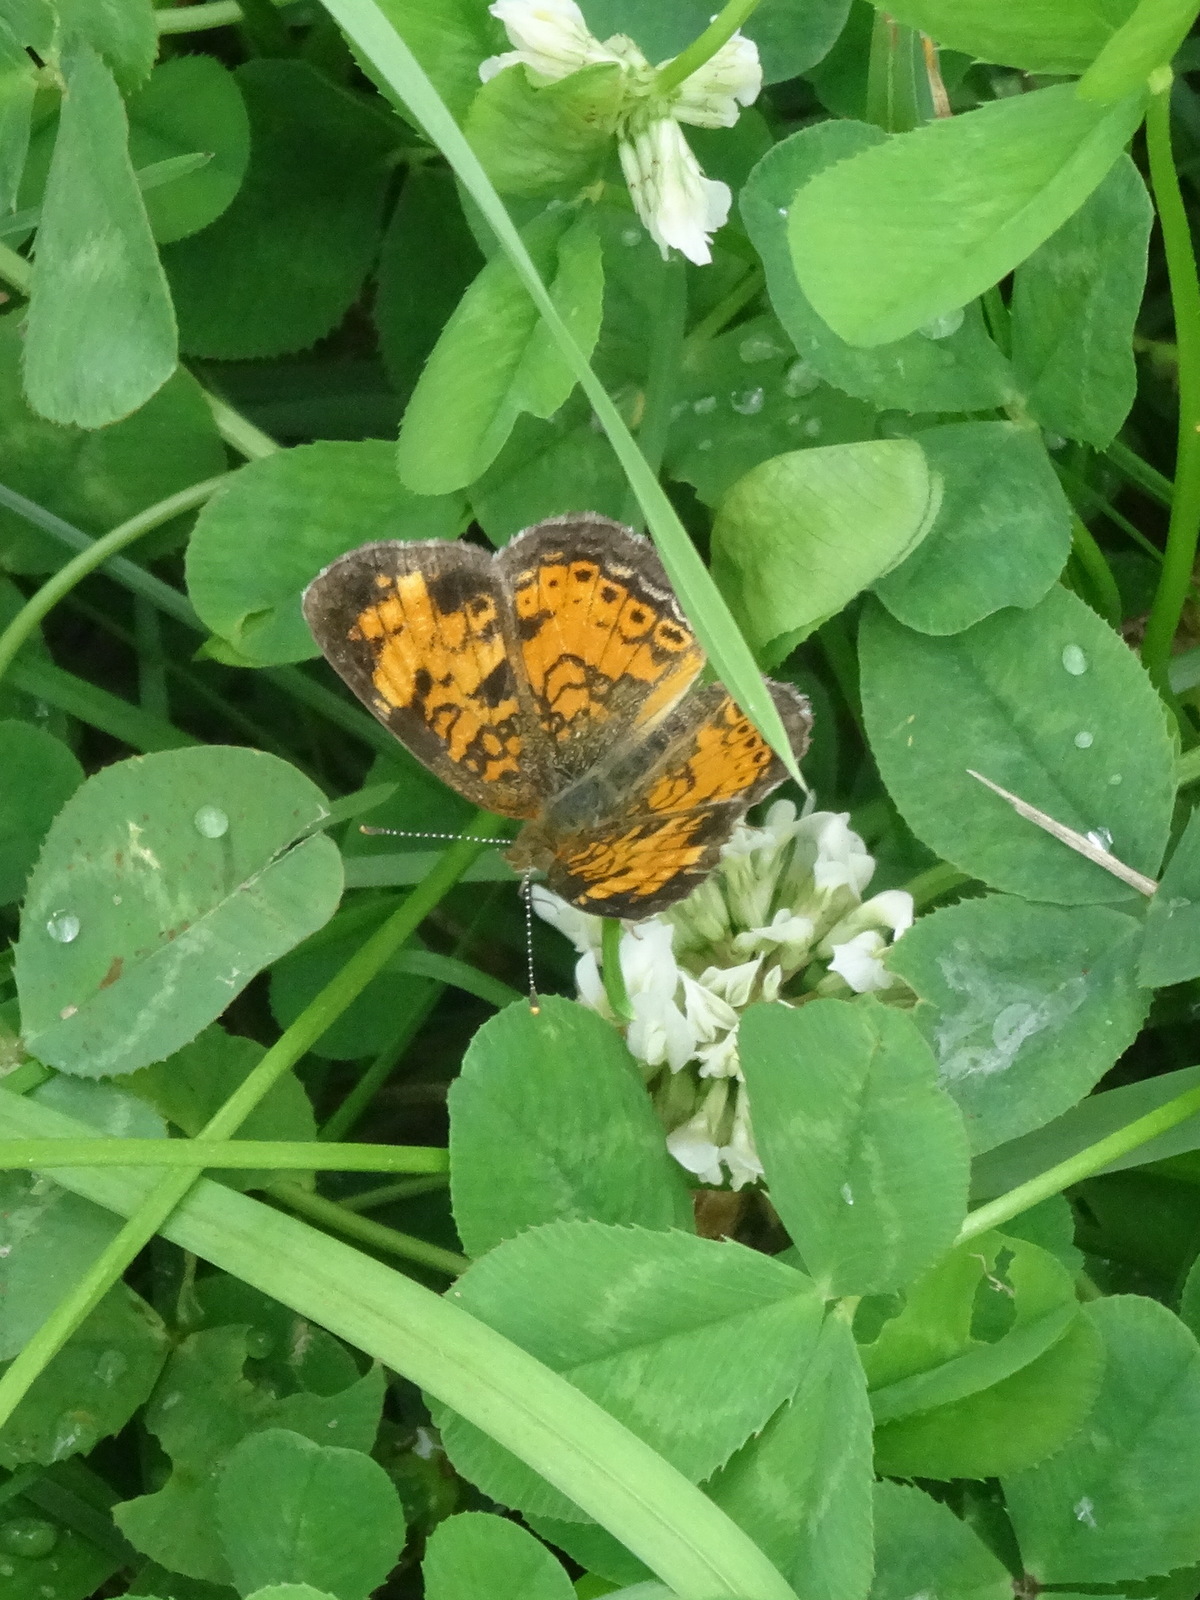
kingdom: Animalia
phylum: Arthropoda
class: Insecta
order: Lepidoptera
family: Nymphalidae
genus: Phyciodes
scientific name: Phyciodes tharos
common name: Pearl crescent
